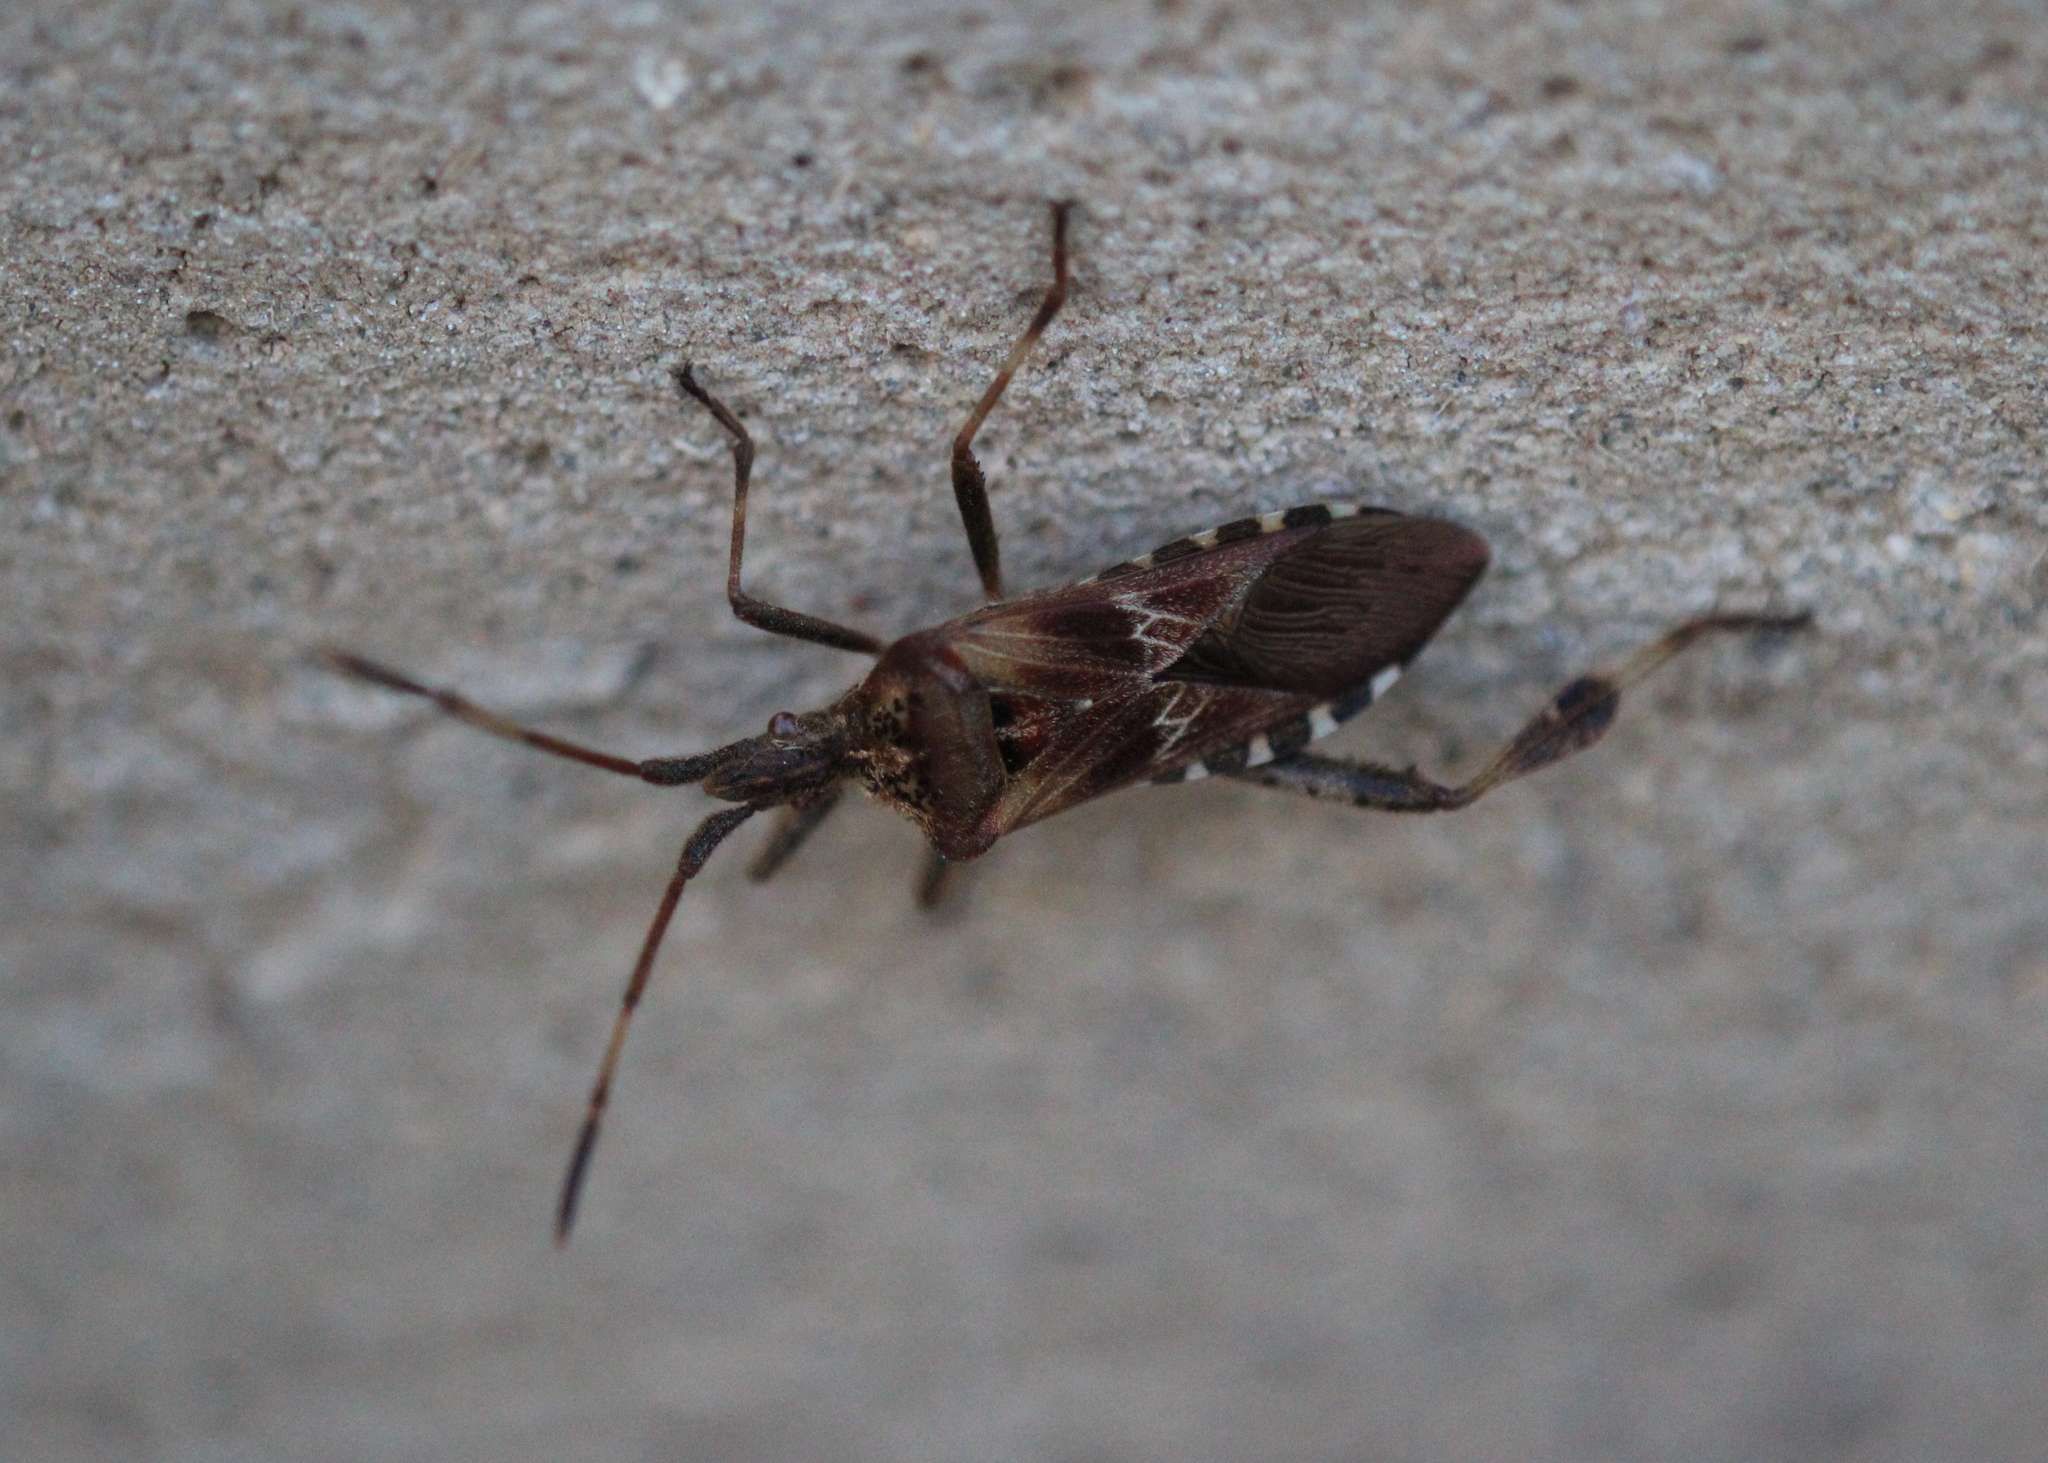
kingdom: Animalia
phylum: Arthropoda
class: Insecta
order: Hemiptera
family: Coreidae
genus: Leptoglossus
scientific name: Leptoglossus occidentalis
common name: Western conifer-seed bug
